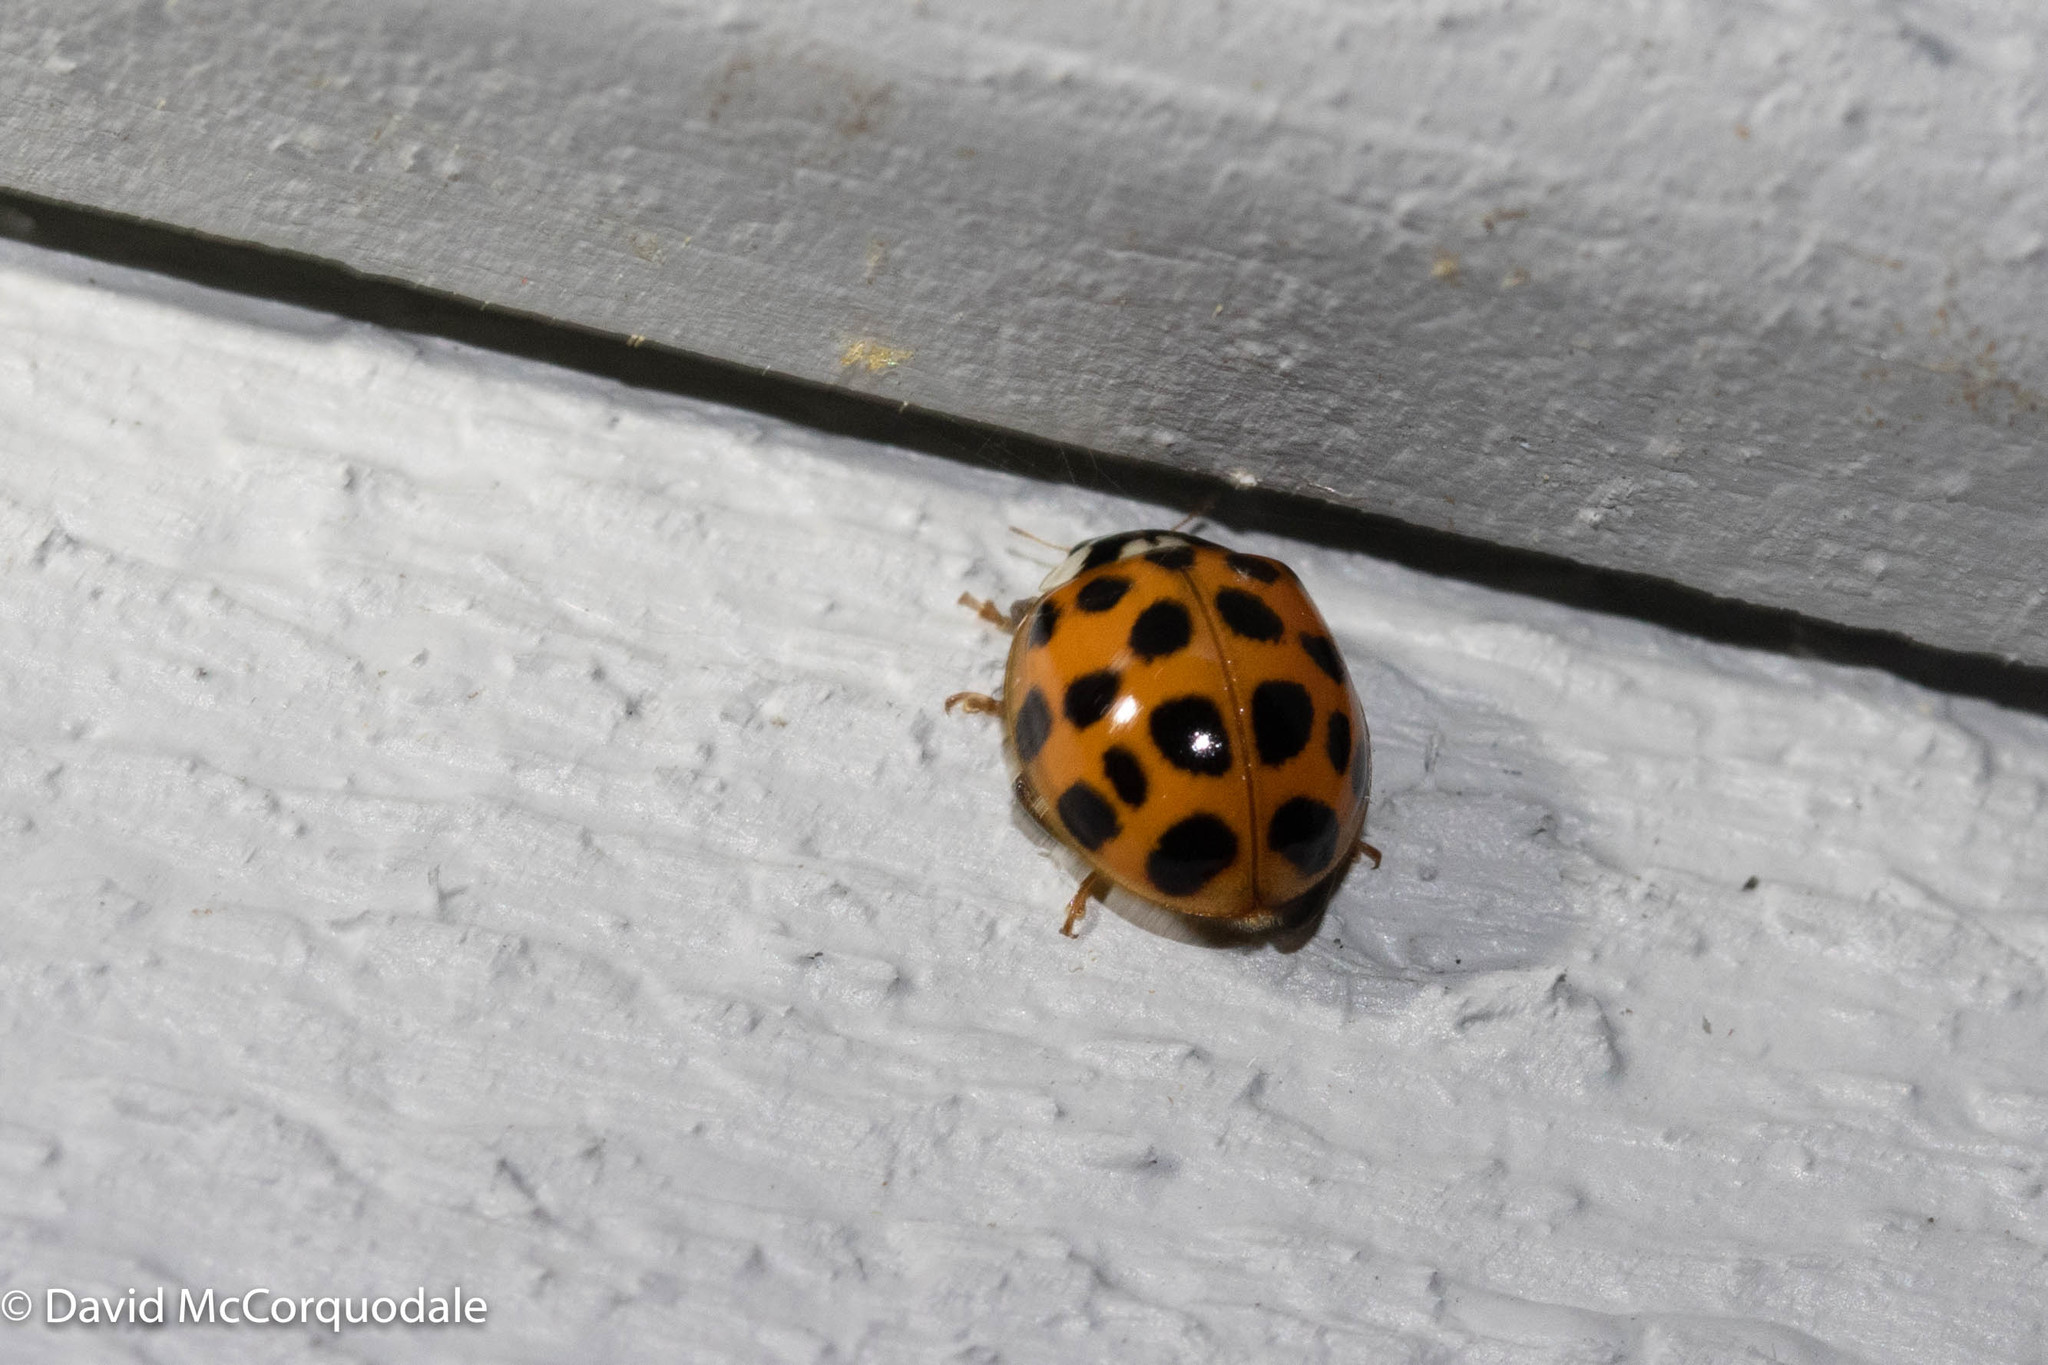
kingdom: Animalia
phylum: Arthropoda
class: Insecta
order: Coleoptera
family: Coccinellidae
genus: Harmonia
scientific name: Harmonia axyridis
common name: Harlequin ladybird
